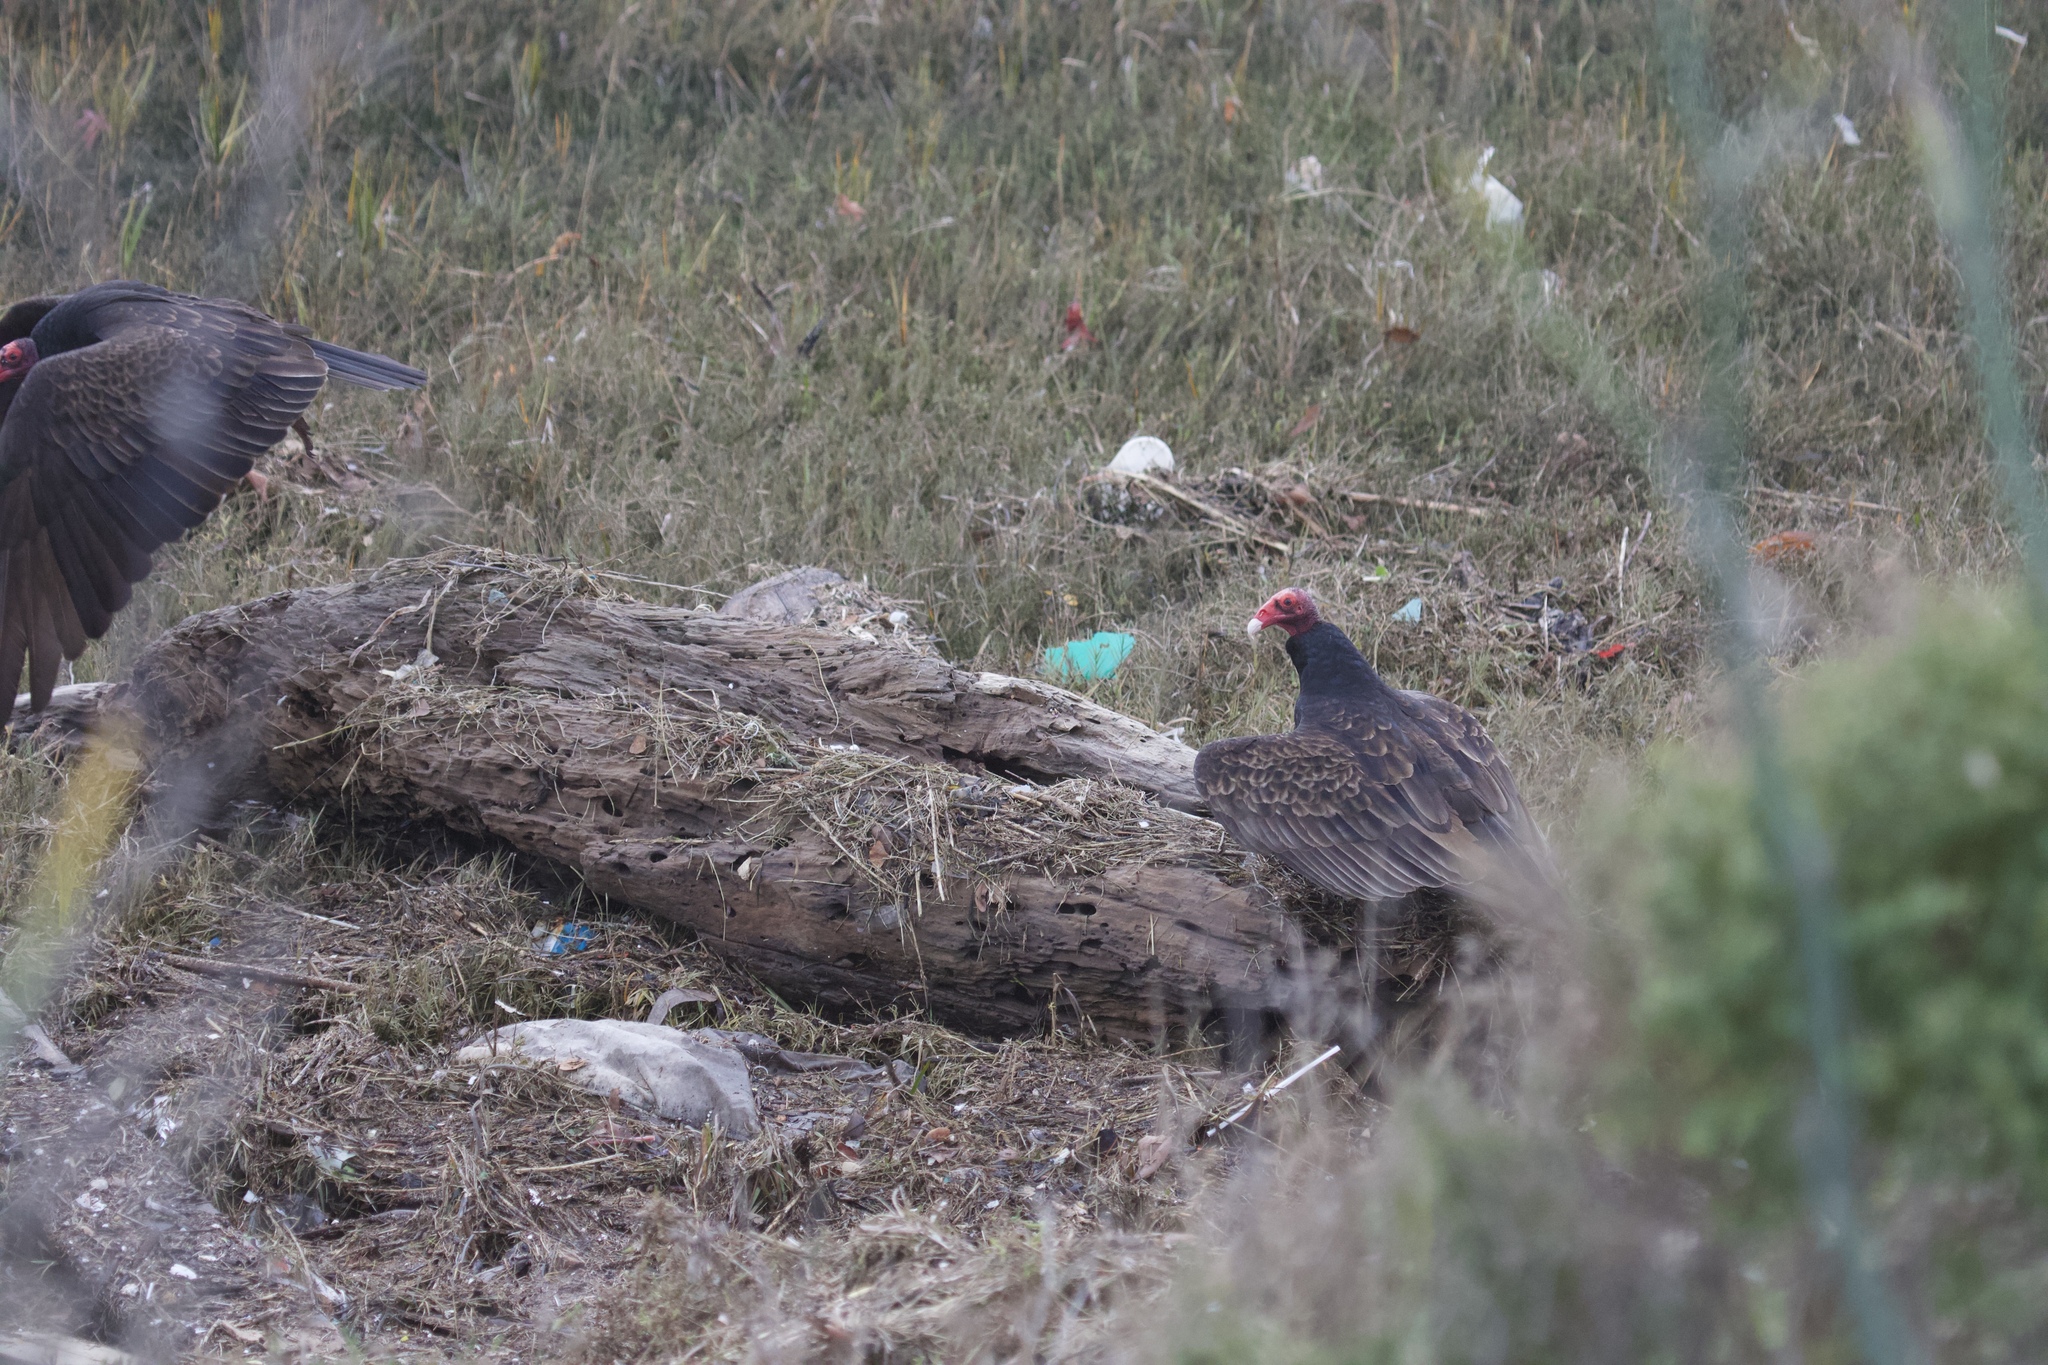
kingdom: Animalia
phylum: Chordata
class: Aves
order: Accipitriformes
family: Cathartidae
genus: Cathartes
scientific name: Cathartes aura
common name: Turkey vulture
